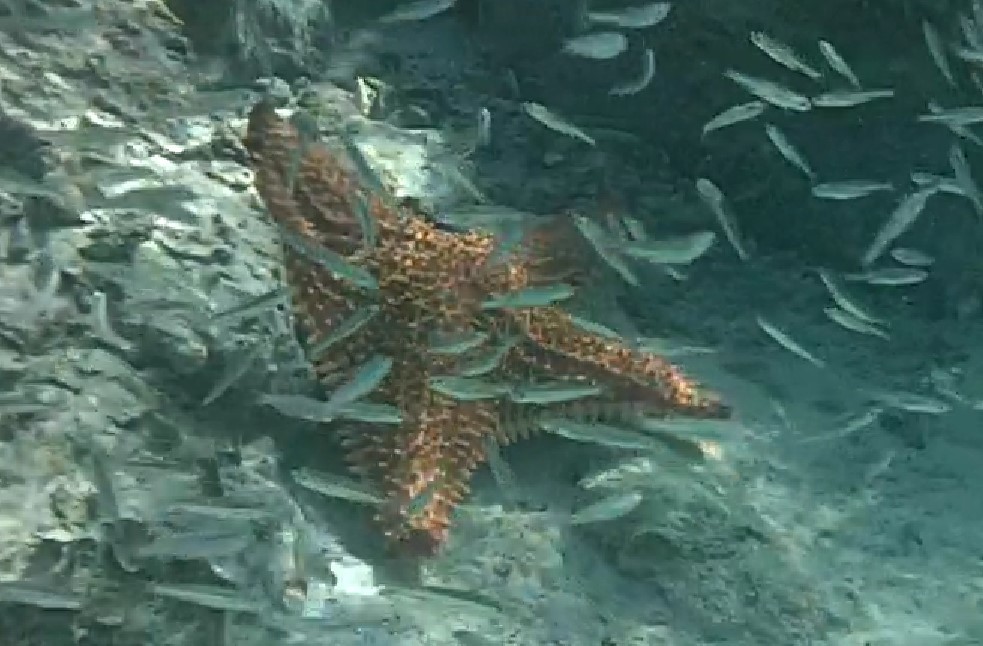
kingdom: Animalia
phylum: Echinodermata
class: Asteroidea
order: Valvatida
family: Oreasteridae
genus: Oreaster
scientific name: Oreaster reticulatus
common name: Cushion sea star
